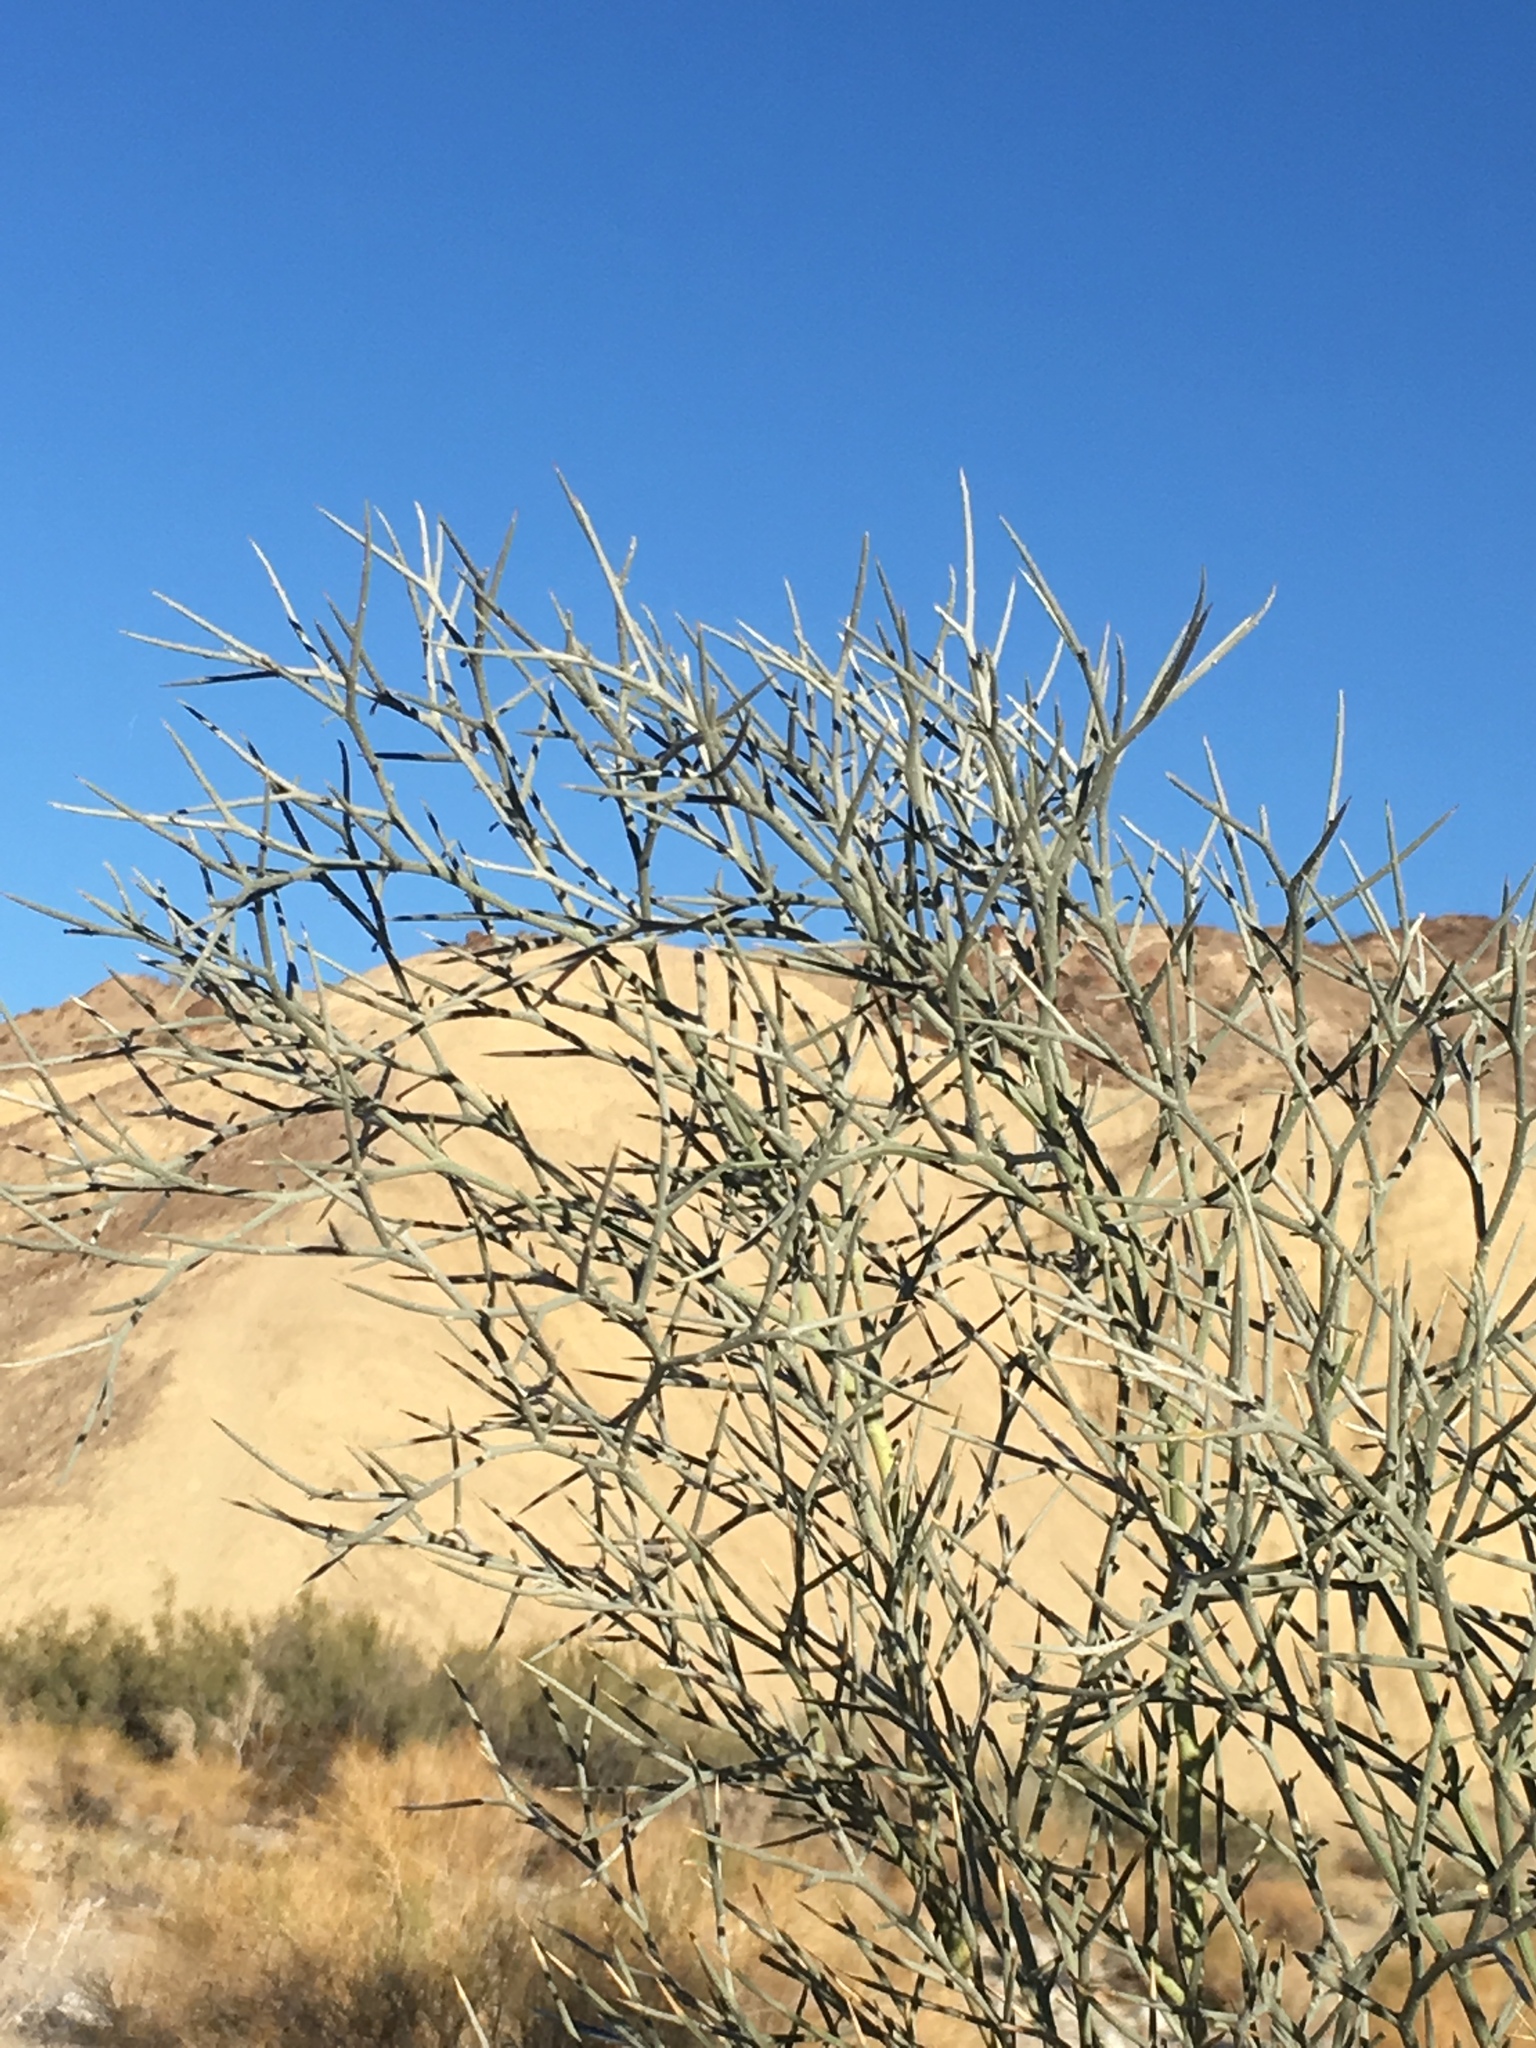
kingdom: Plantae
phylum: Tracheophyta
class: Magnoliopsida
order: Fabales
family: Fabaceae
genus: Psorothamnus
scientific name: Psorothamnus spinosus
